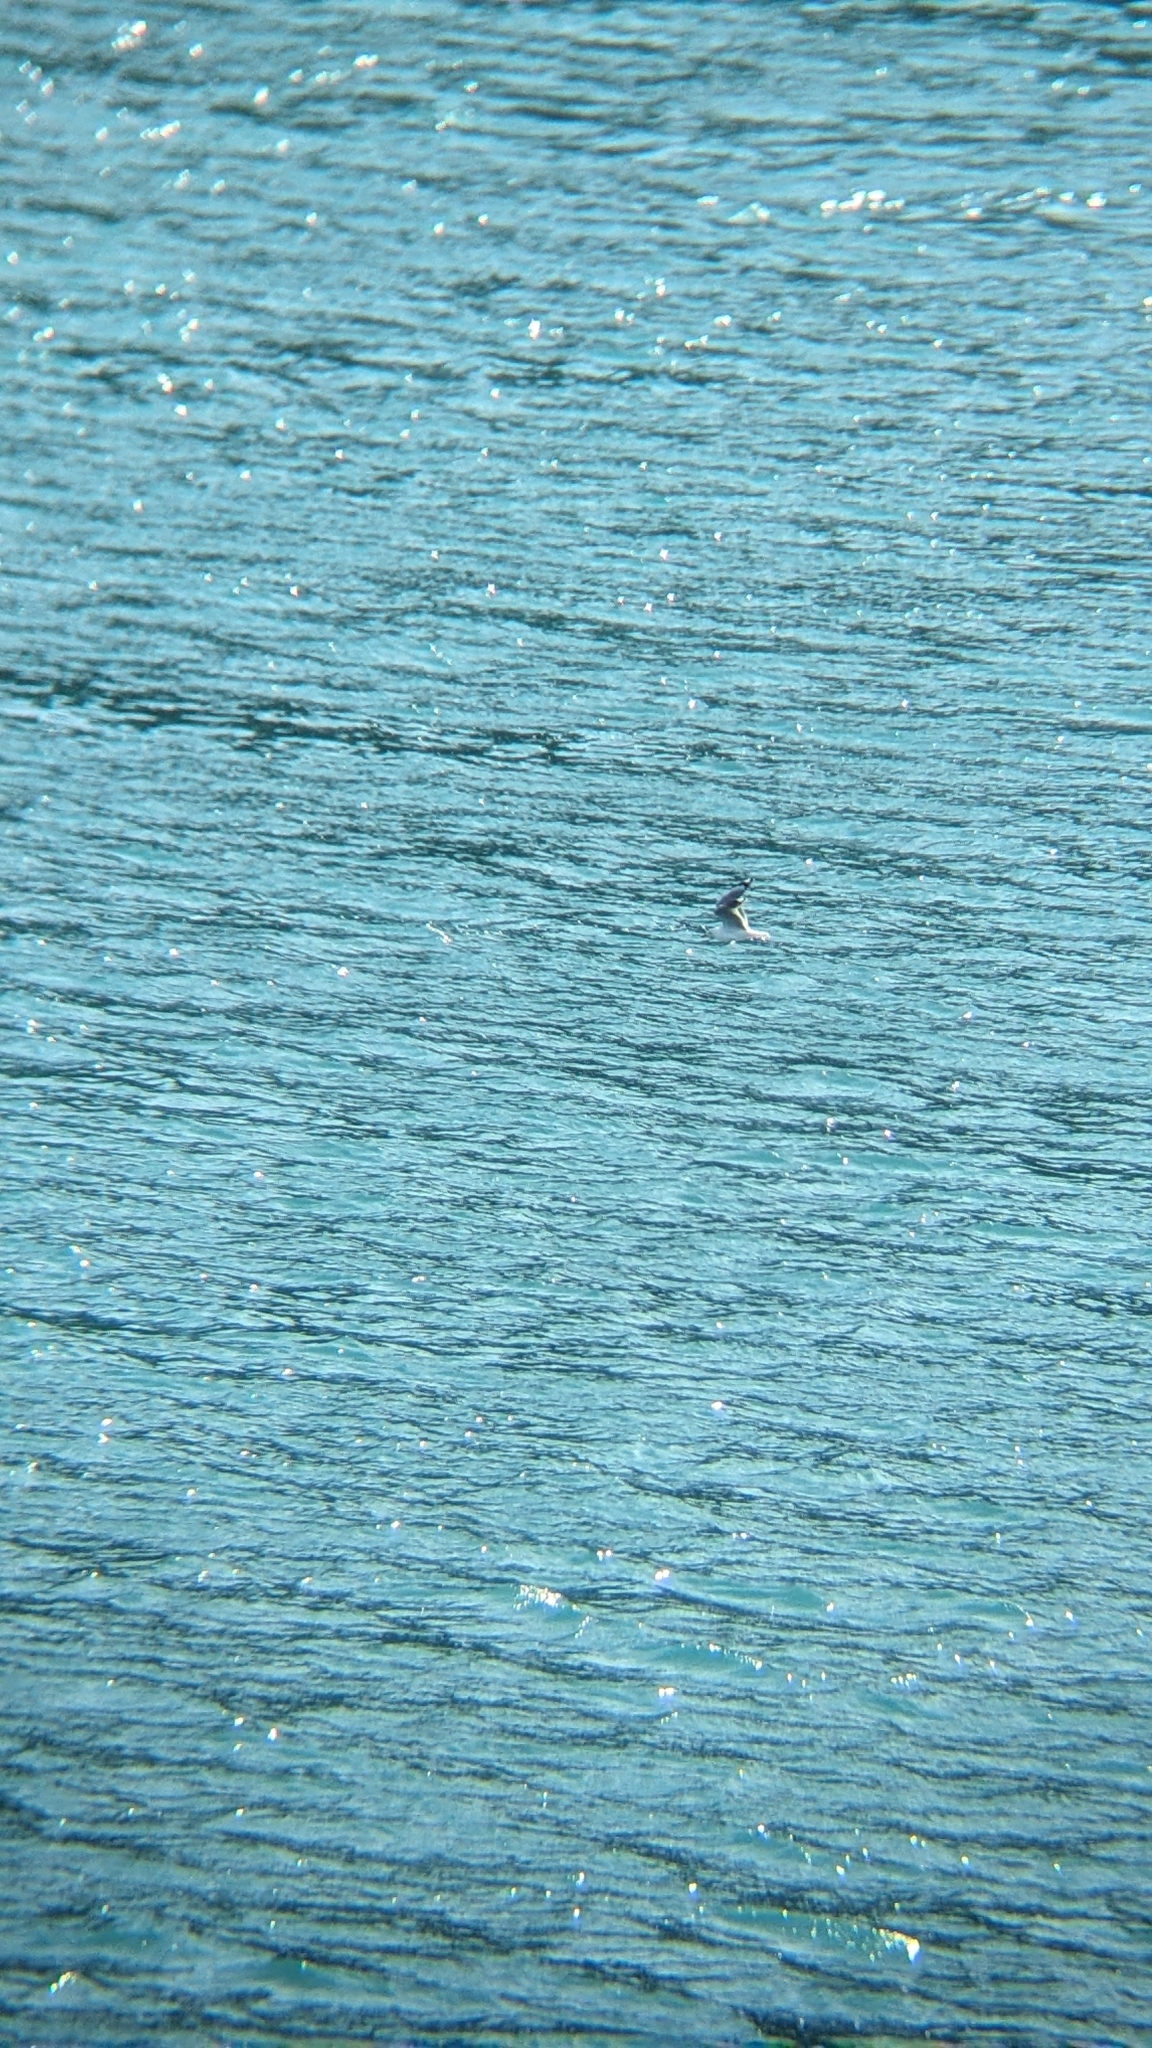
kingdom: Animalia
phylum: Chordata
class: Aves
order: Charadriiformes
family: Laridae
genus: Chroicocephalus
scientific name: Chroicocephalus novaehollandiae
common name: Silver gull
